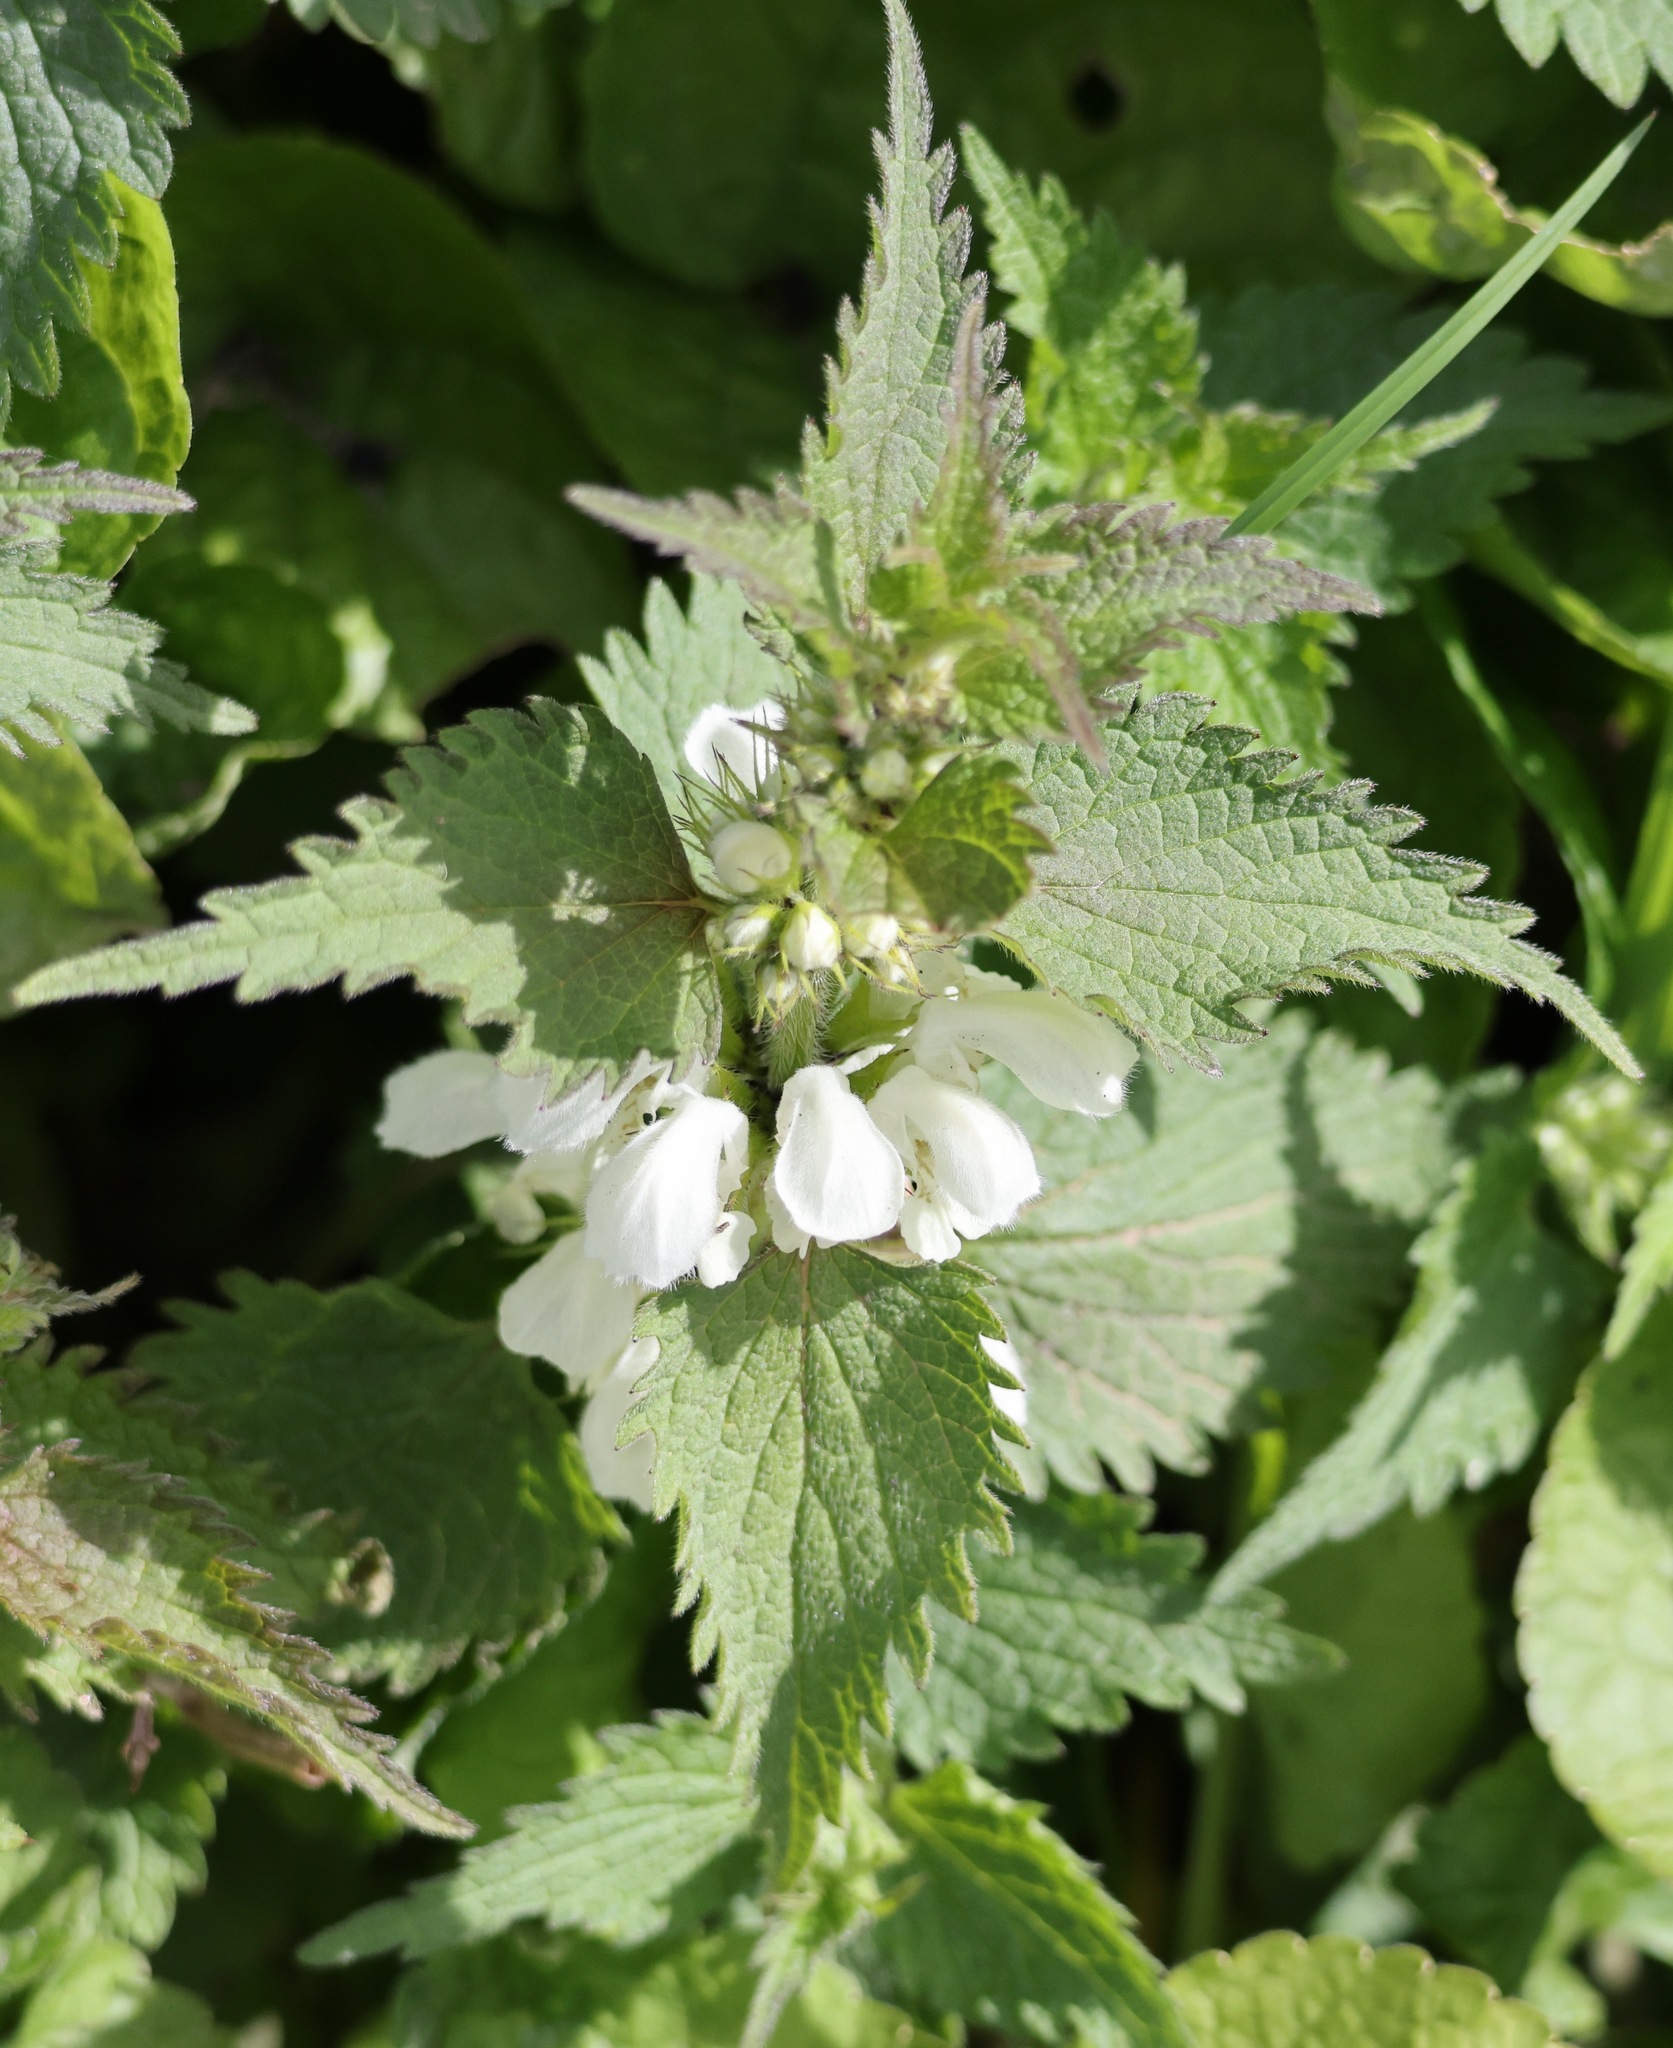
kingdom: Plantae
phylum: Tracheophyta
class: Magnoliopsida
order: Lamiales
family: Lamiaceae
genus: Lamium
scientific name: Lamium album
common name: White dead-nettle
